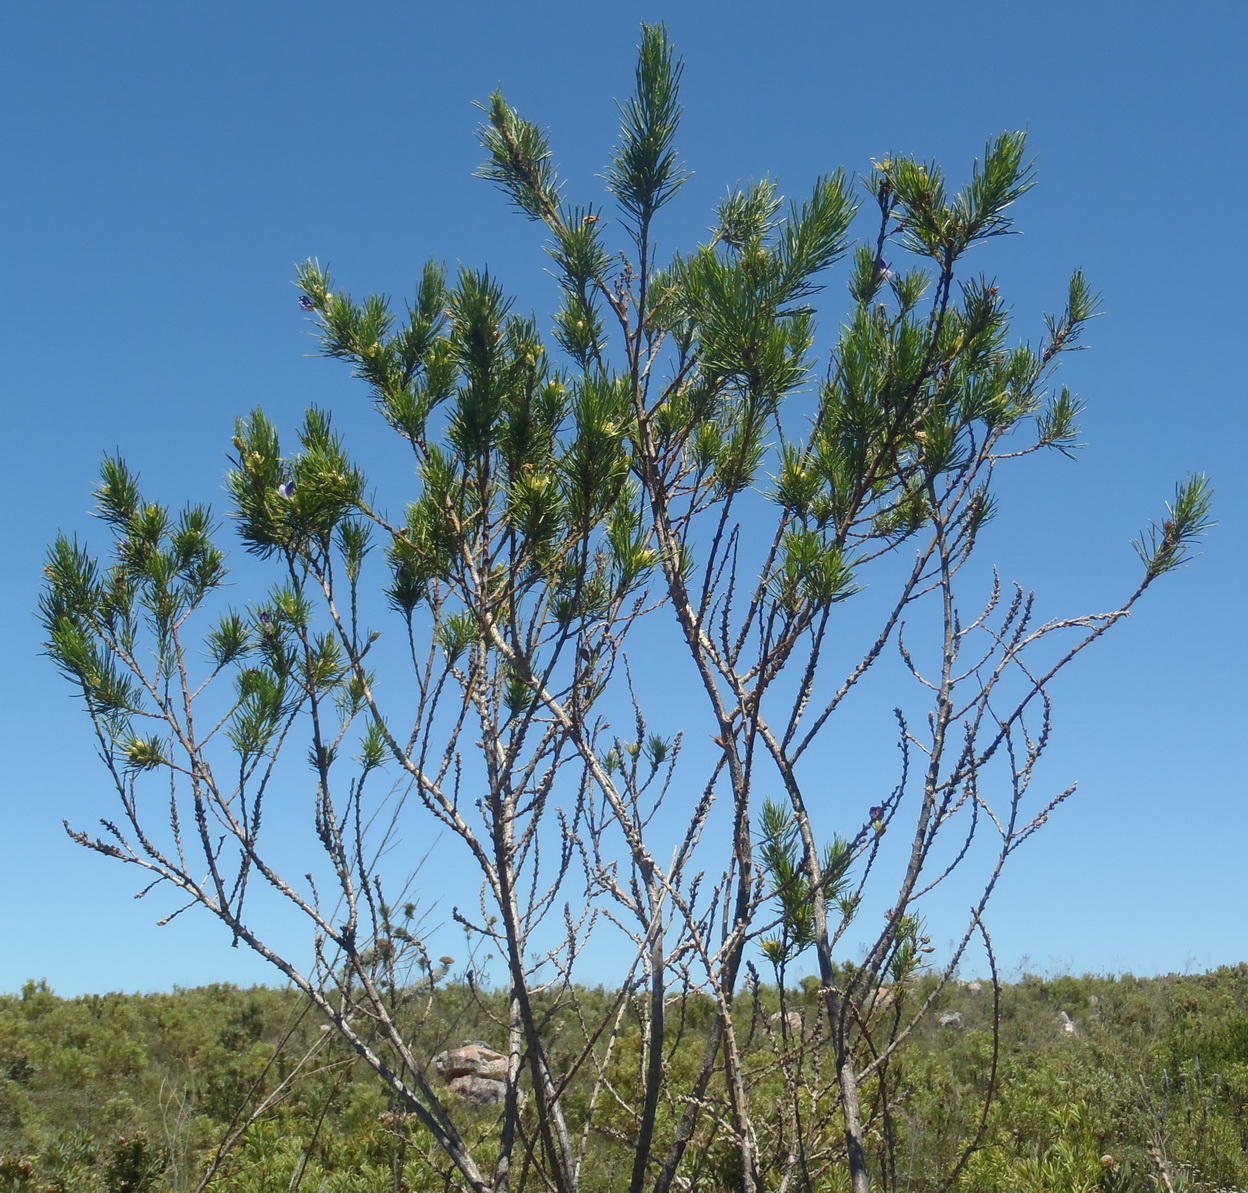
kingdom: Plantae
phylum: Tracheophyta
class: Magnoliopsida
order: Fabales
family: Fabaceae
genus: Psoralea
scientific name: Psoralea affinis
